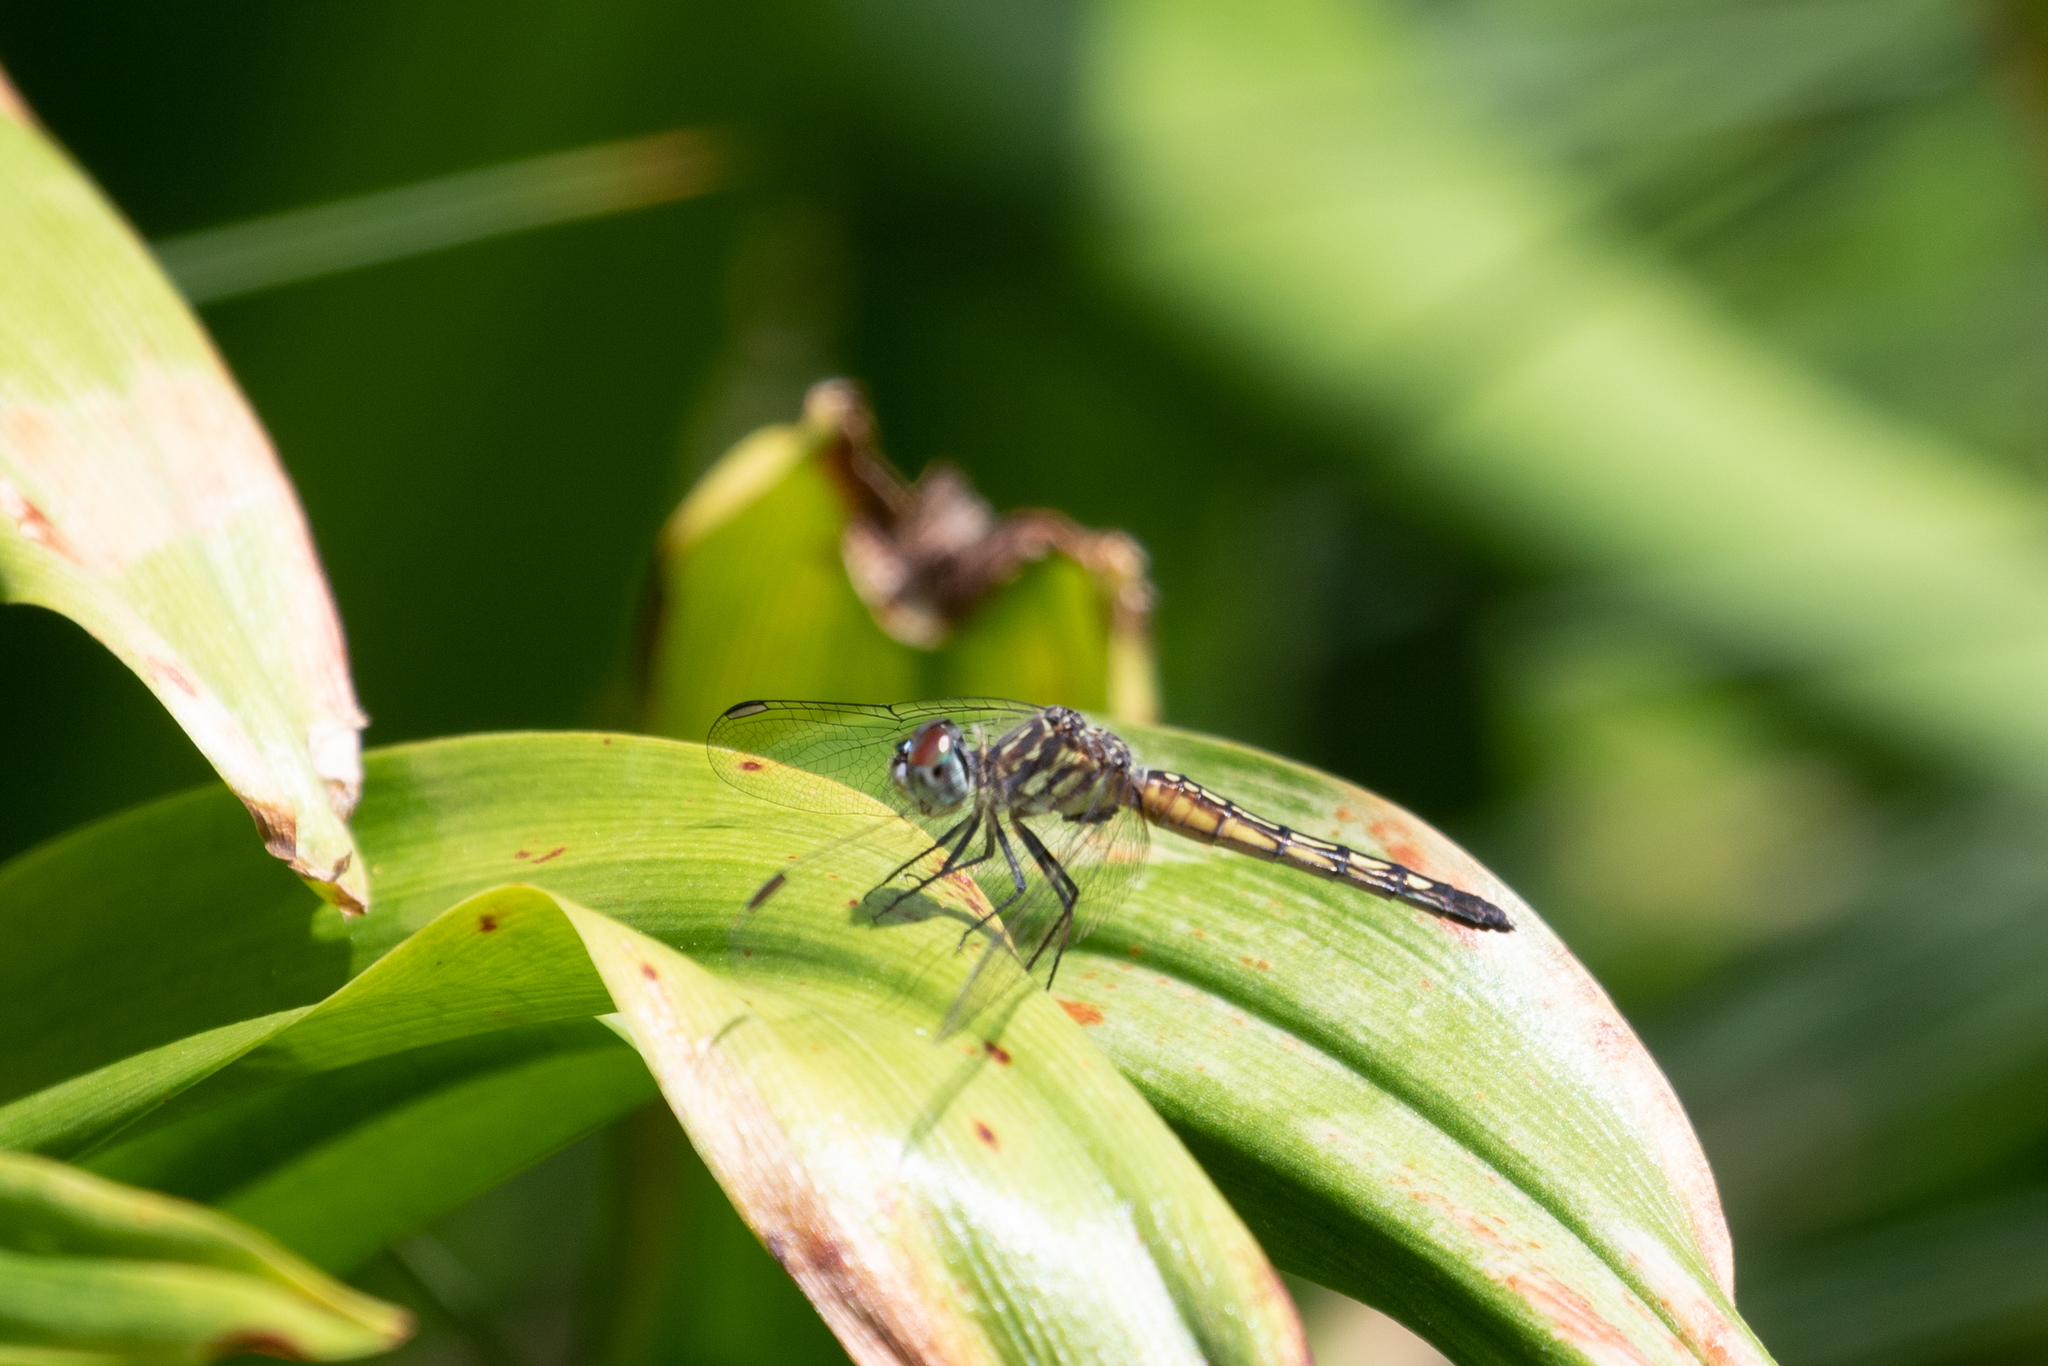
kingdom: Animalia
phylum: Arthropoda
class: Insecta
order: Odonata
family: Libellulidae
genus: Pachydiplax
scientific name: Pachydiplax longipennis
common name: Blue dasher
